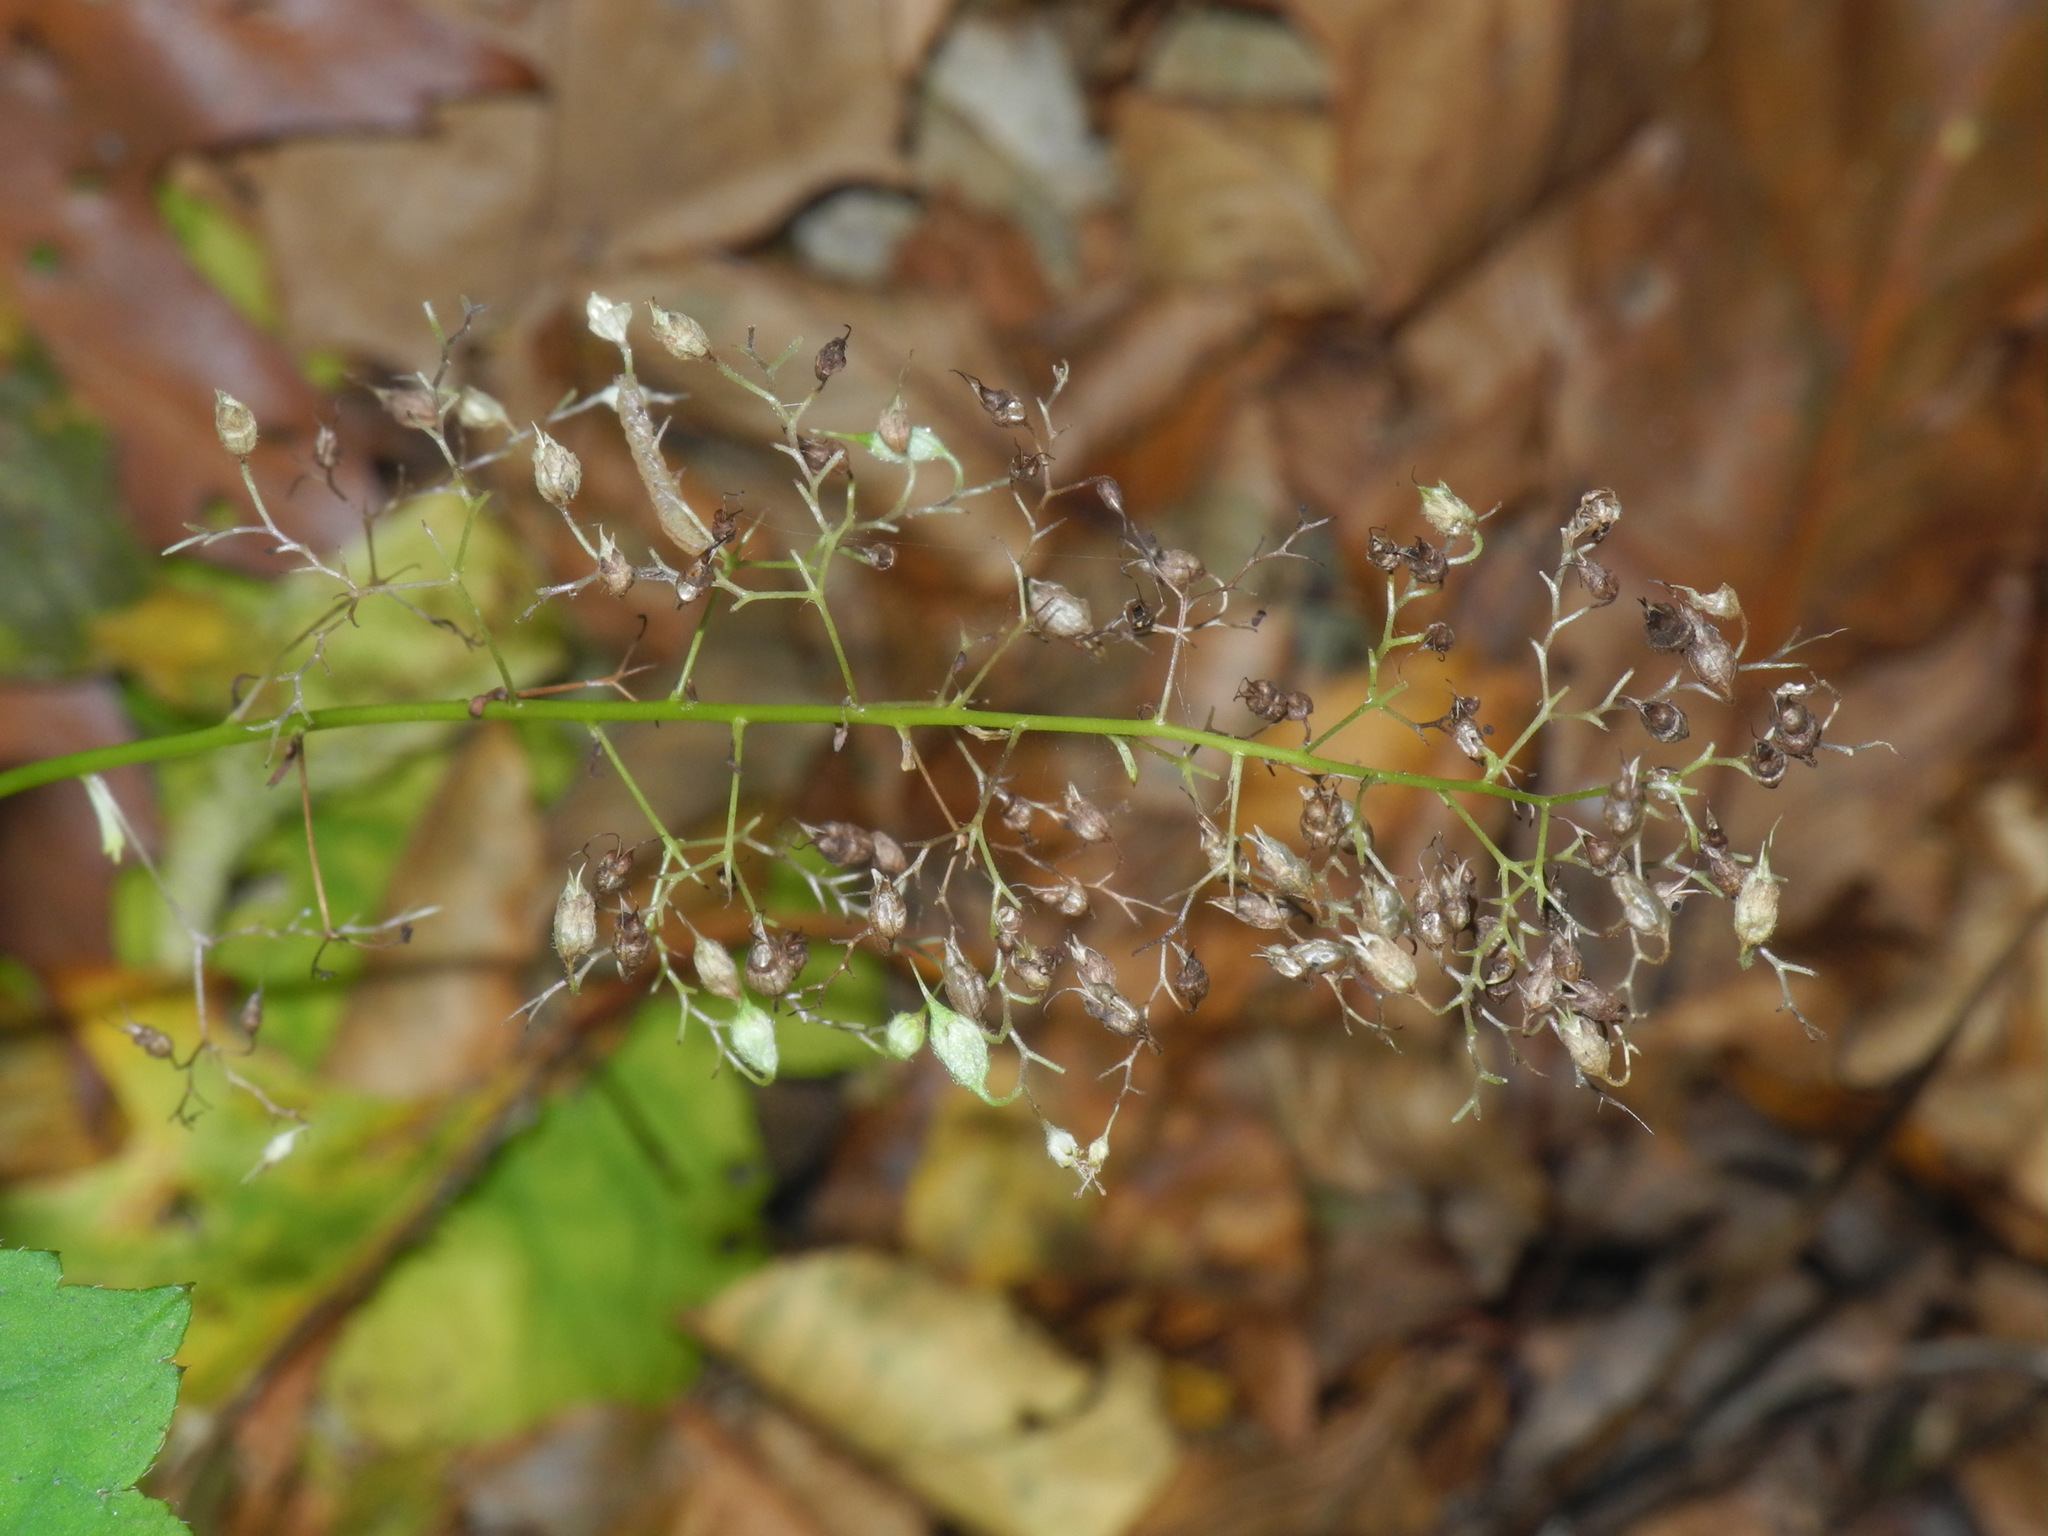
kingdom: Plantae
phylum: Tracheophyta
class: Magnoliopsida
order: Saxifragales
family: Saxifragaceae
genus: Heuchera
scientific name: Heuchera villosa
